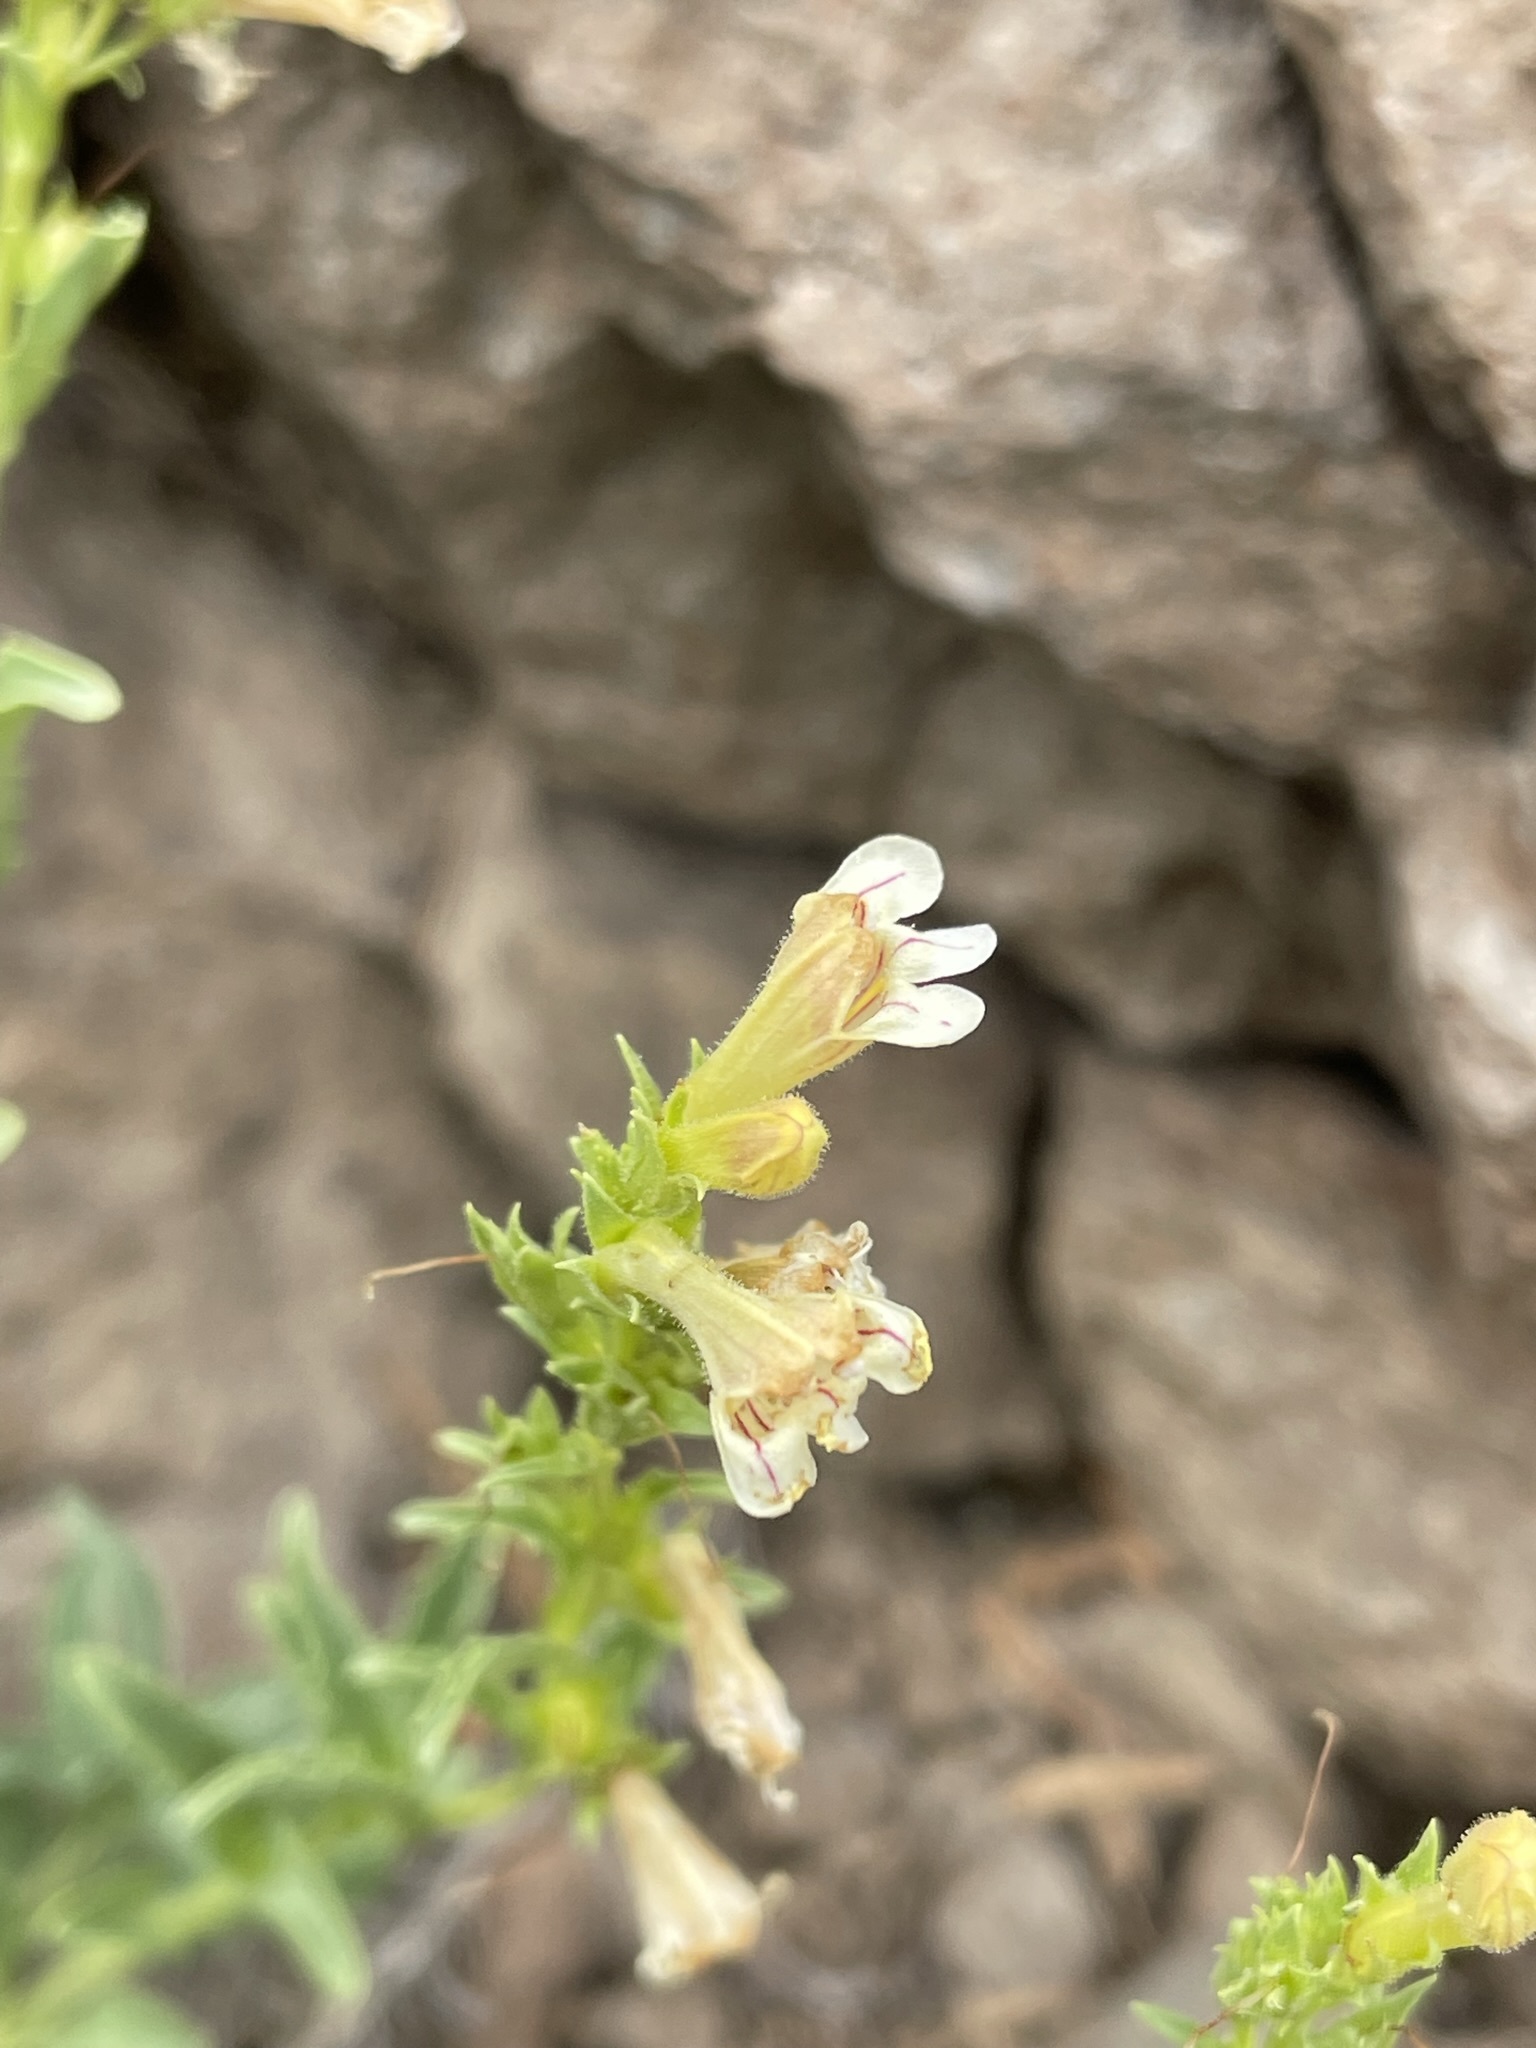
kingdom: Plantae
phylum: Tracheophyta
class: Magnoliopsida
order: Lamiales
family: Plantaginaceae
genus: Penstemon
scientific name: Penstemon deustus
